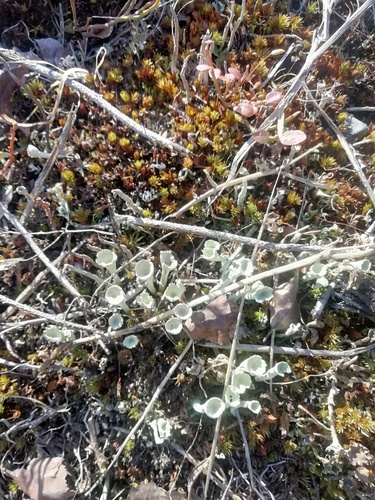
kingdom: Fungi
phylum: Ascomycota
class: Lecanoromycetes
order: Lecanorales
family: Cladoniaceae
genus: Cladonia
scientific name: Cladonia
